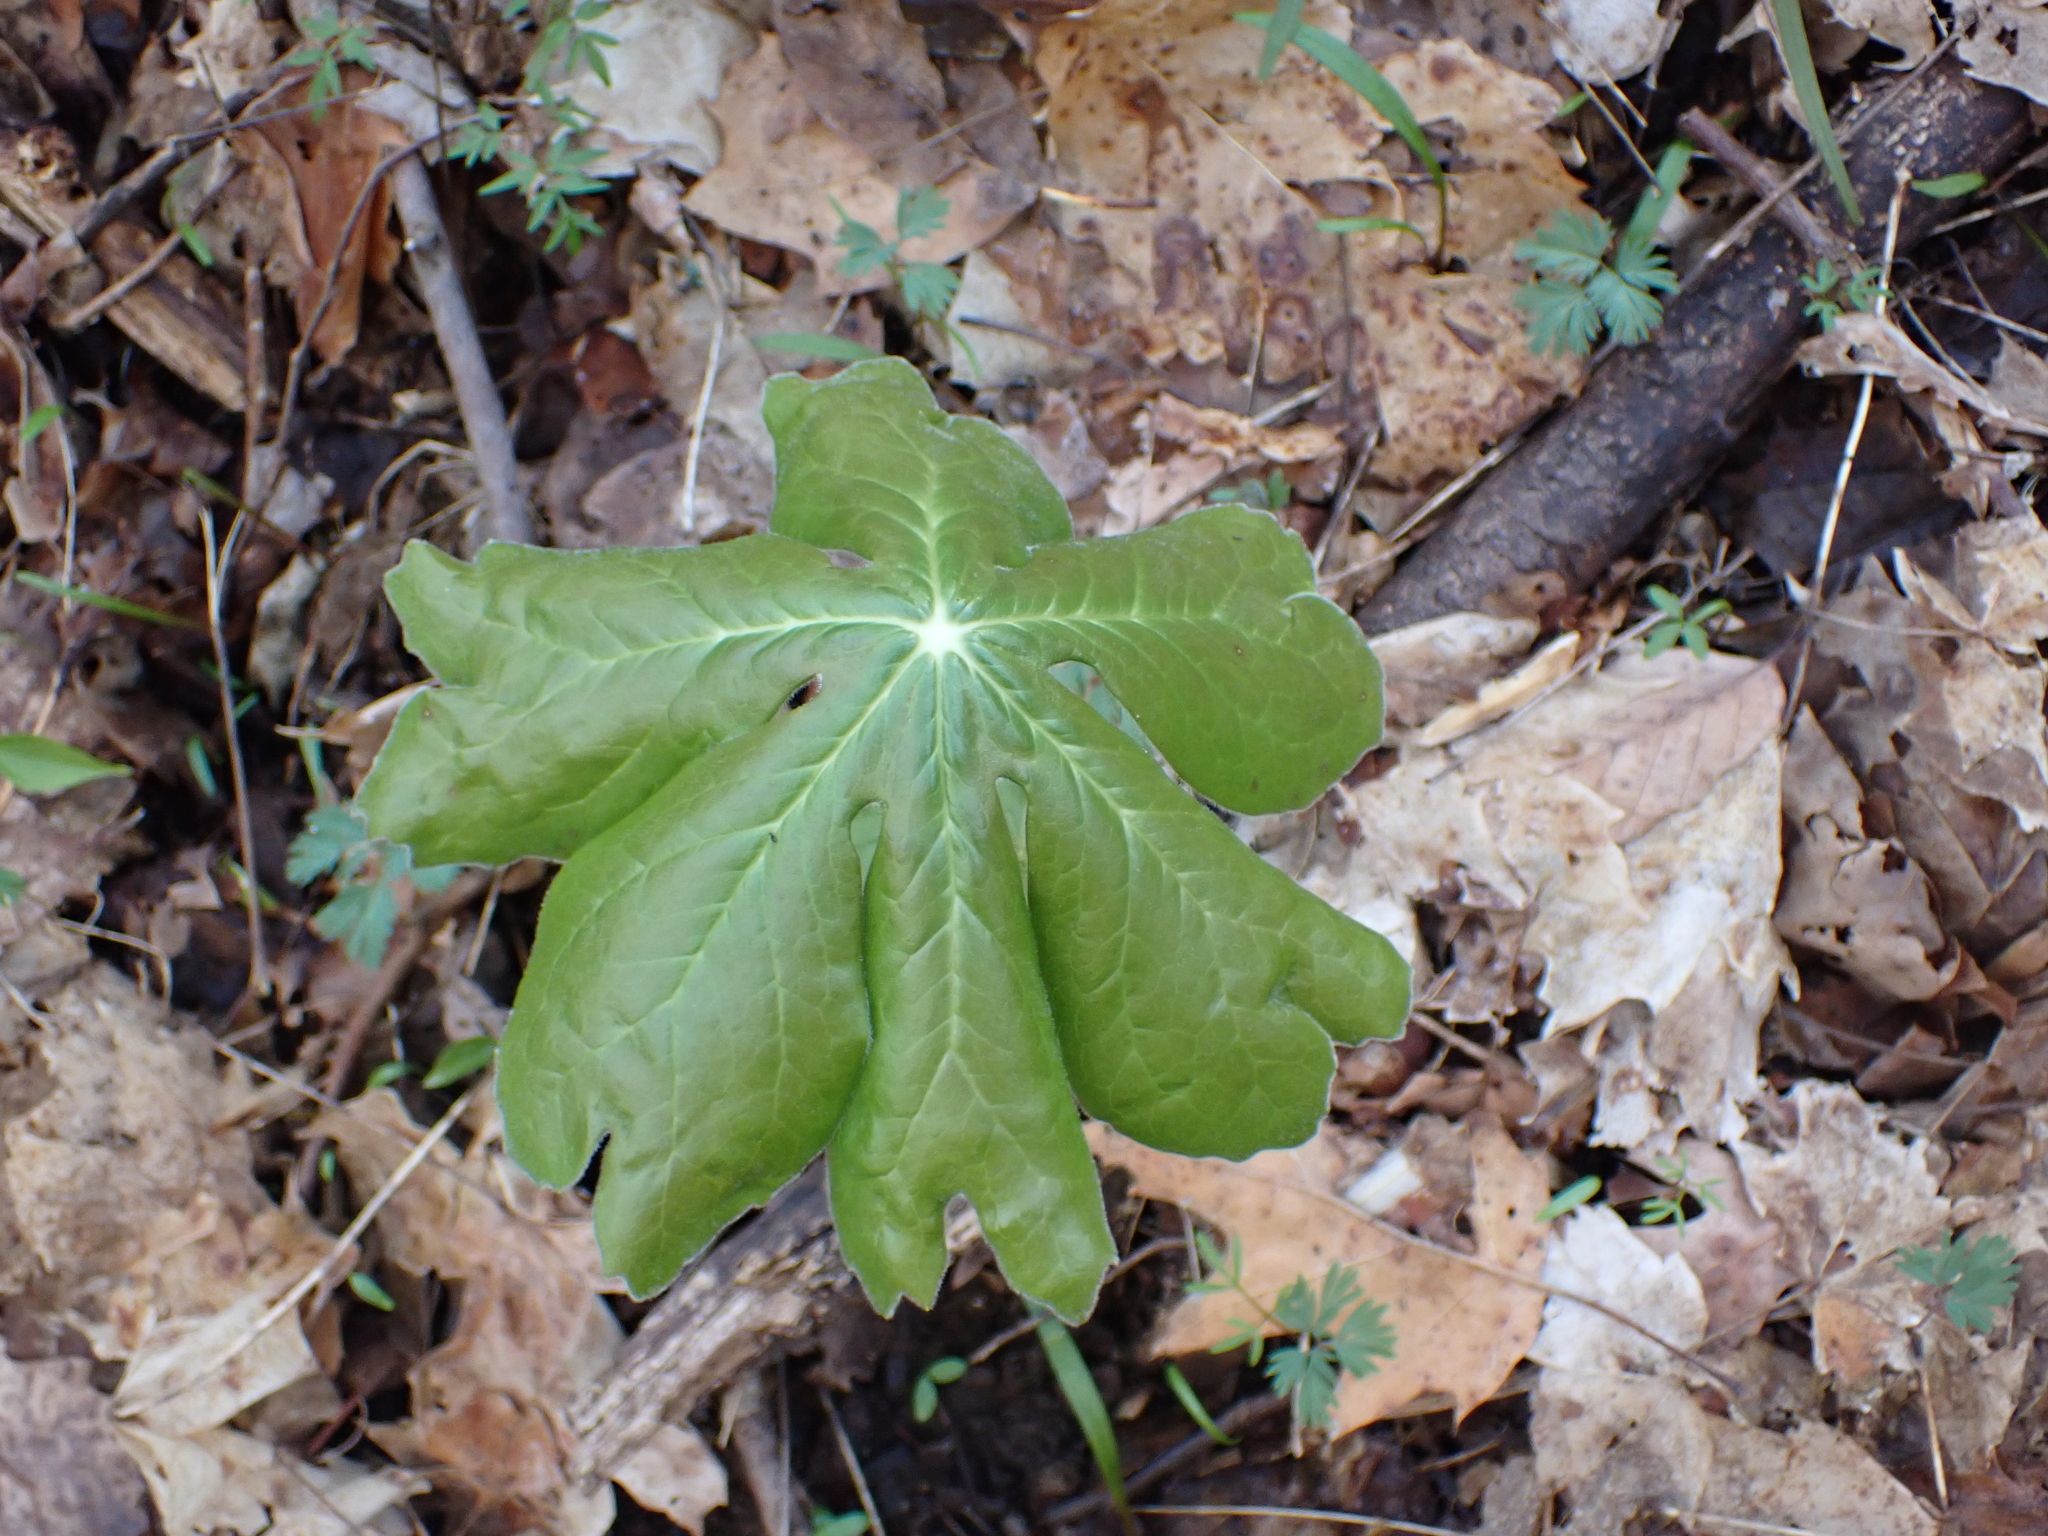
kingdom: Plantae
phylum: Tracheophyta
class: Magnoliopsida
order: Ranunculales
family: Berberidaceae
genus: Podophyllum
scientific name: Podophyllum peltatum
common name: Wild mandrake
